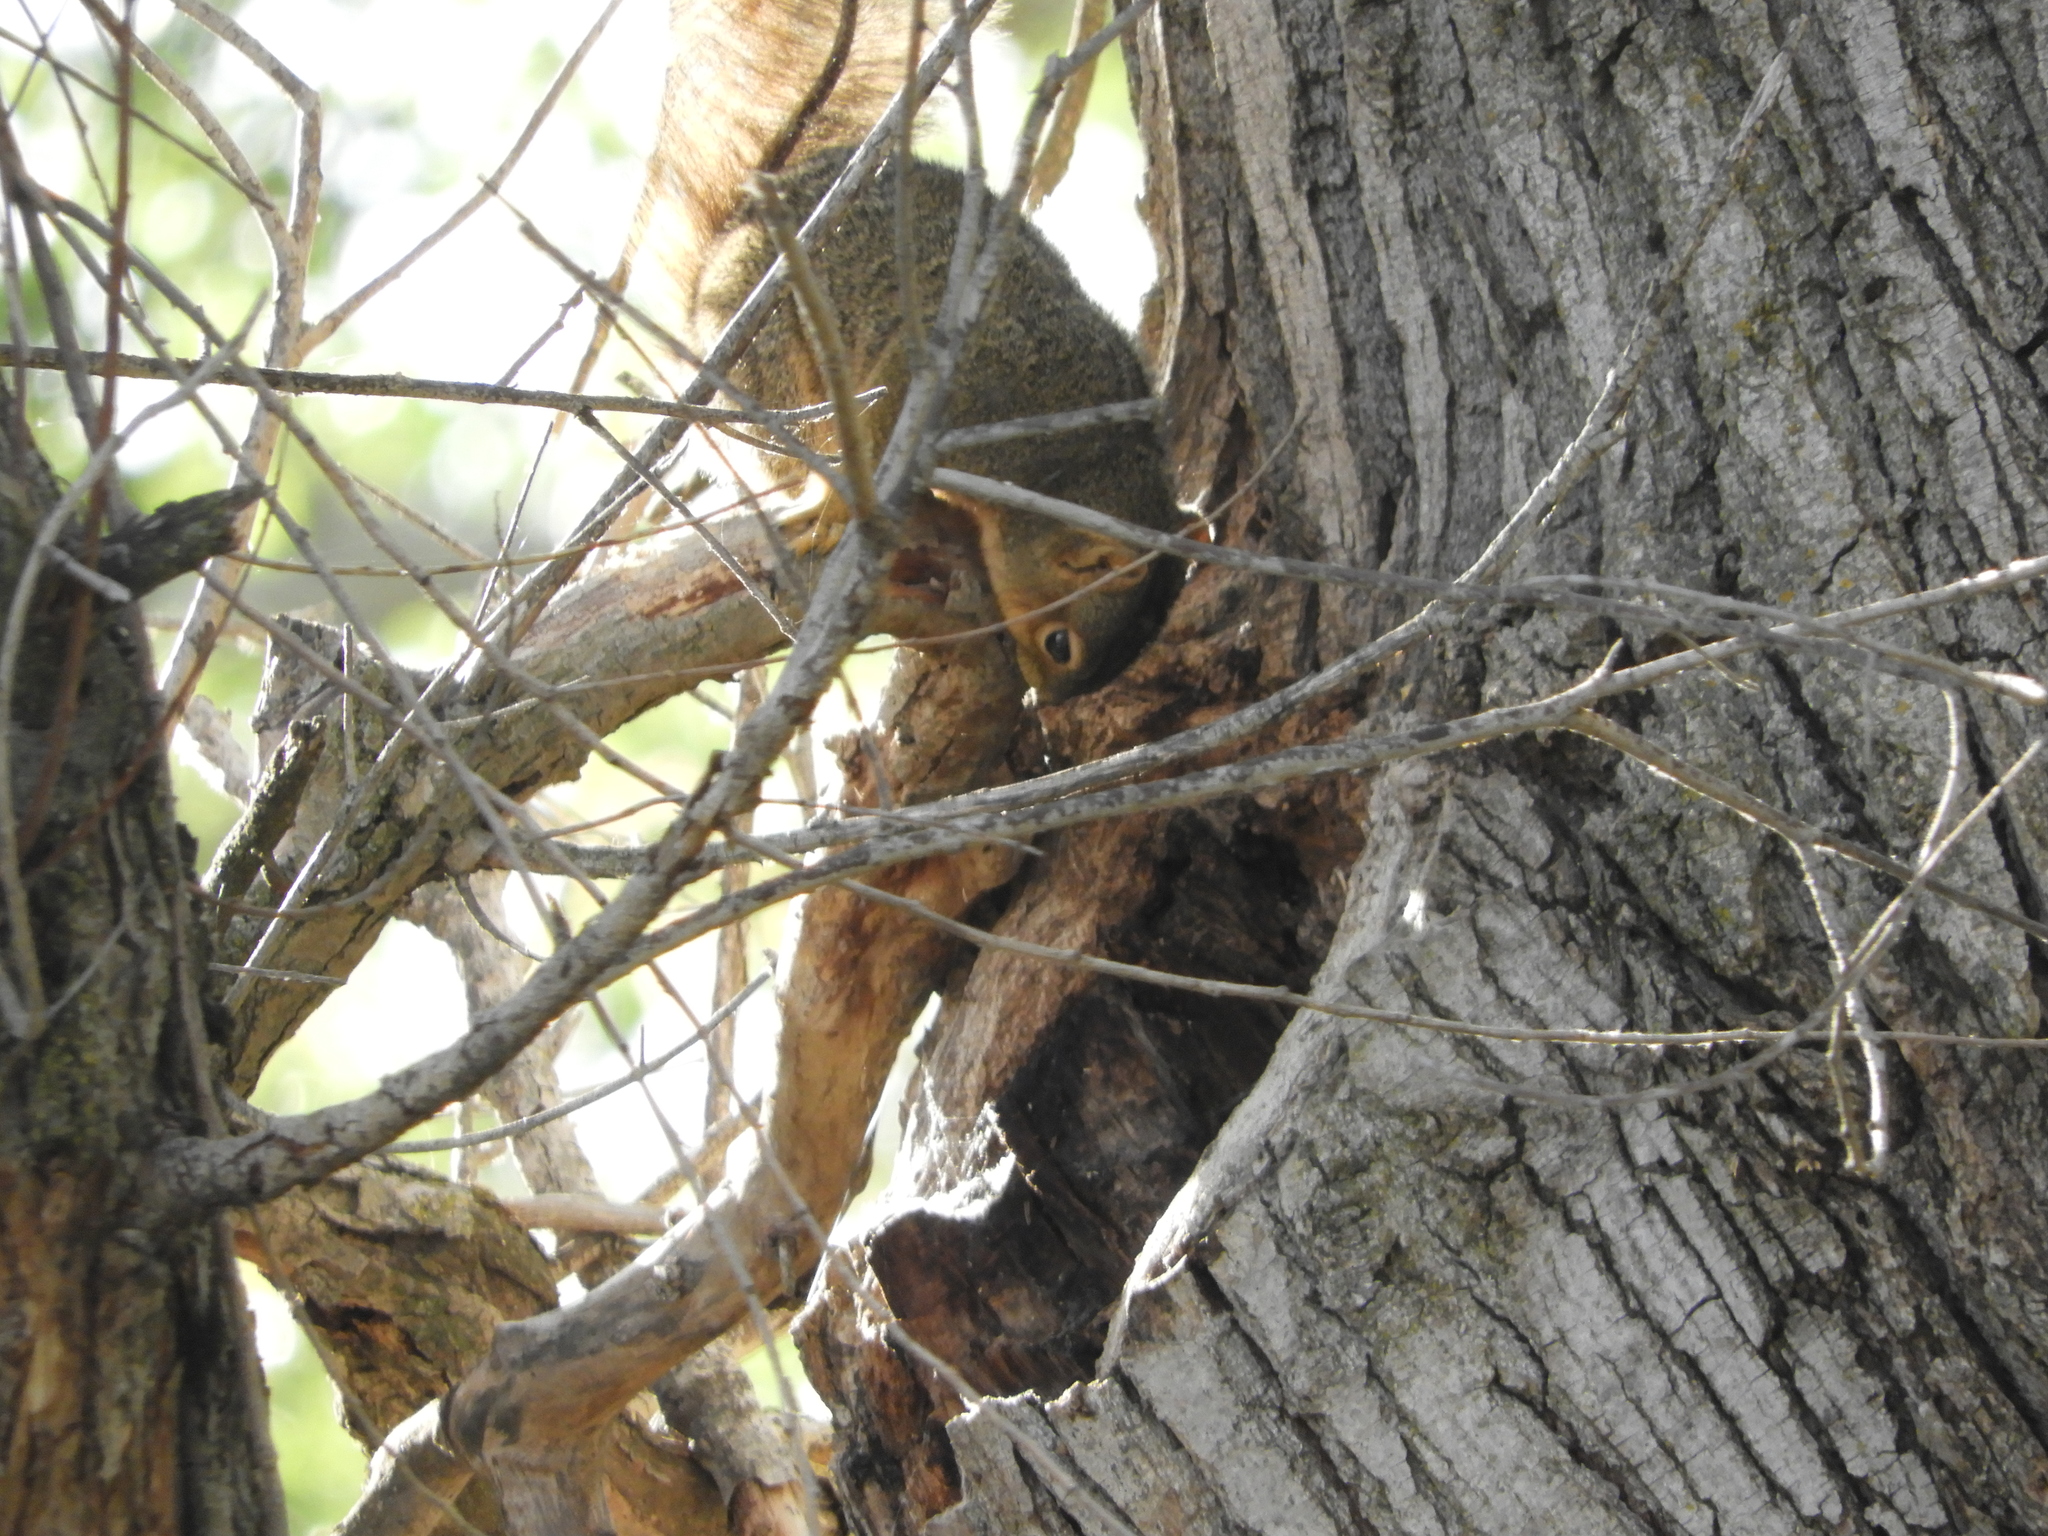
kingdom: Animalia
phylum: Chordata
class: Mammalia
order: Rodentia
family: Sciuridae
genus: Sciurus
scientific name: Sciurus niger
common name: Fox squirrel
